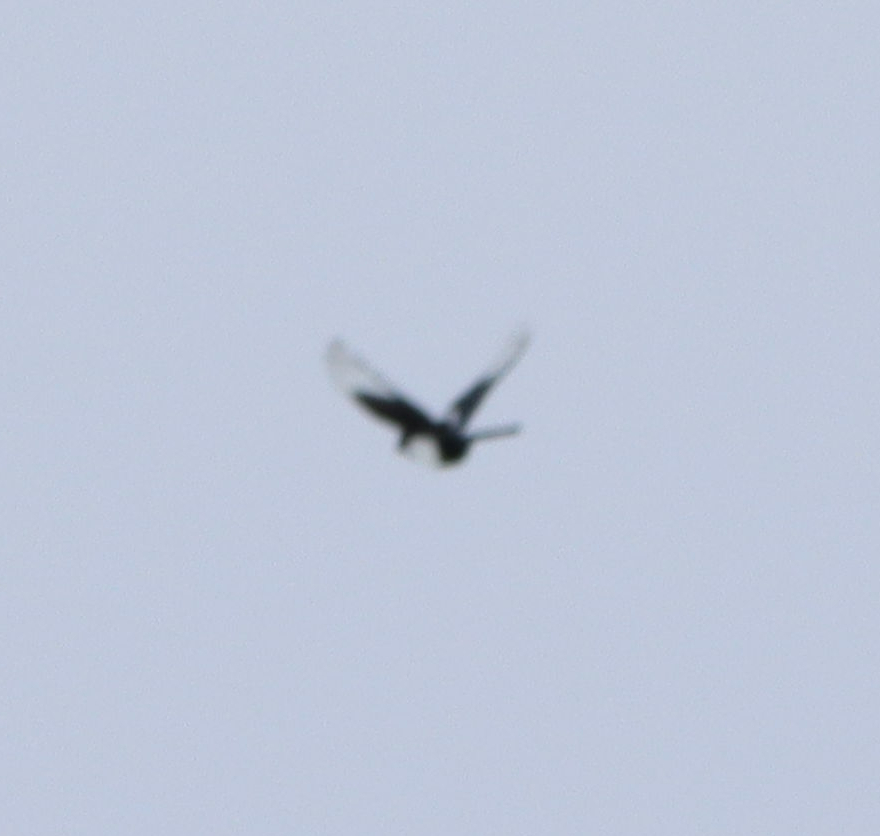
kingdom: Animalia
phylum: Chordata
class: Aves
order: Passeriformes
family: Corvidae
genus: Pica
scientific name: Pica hudsonia
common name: Black-billed magpie
